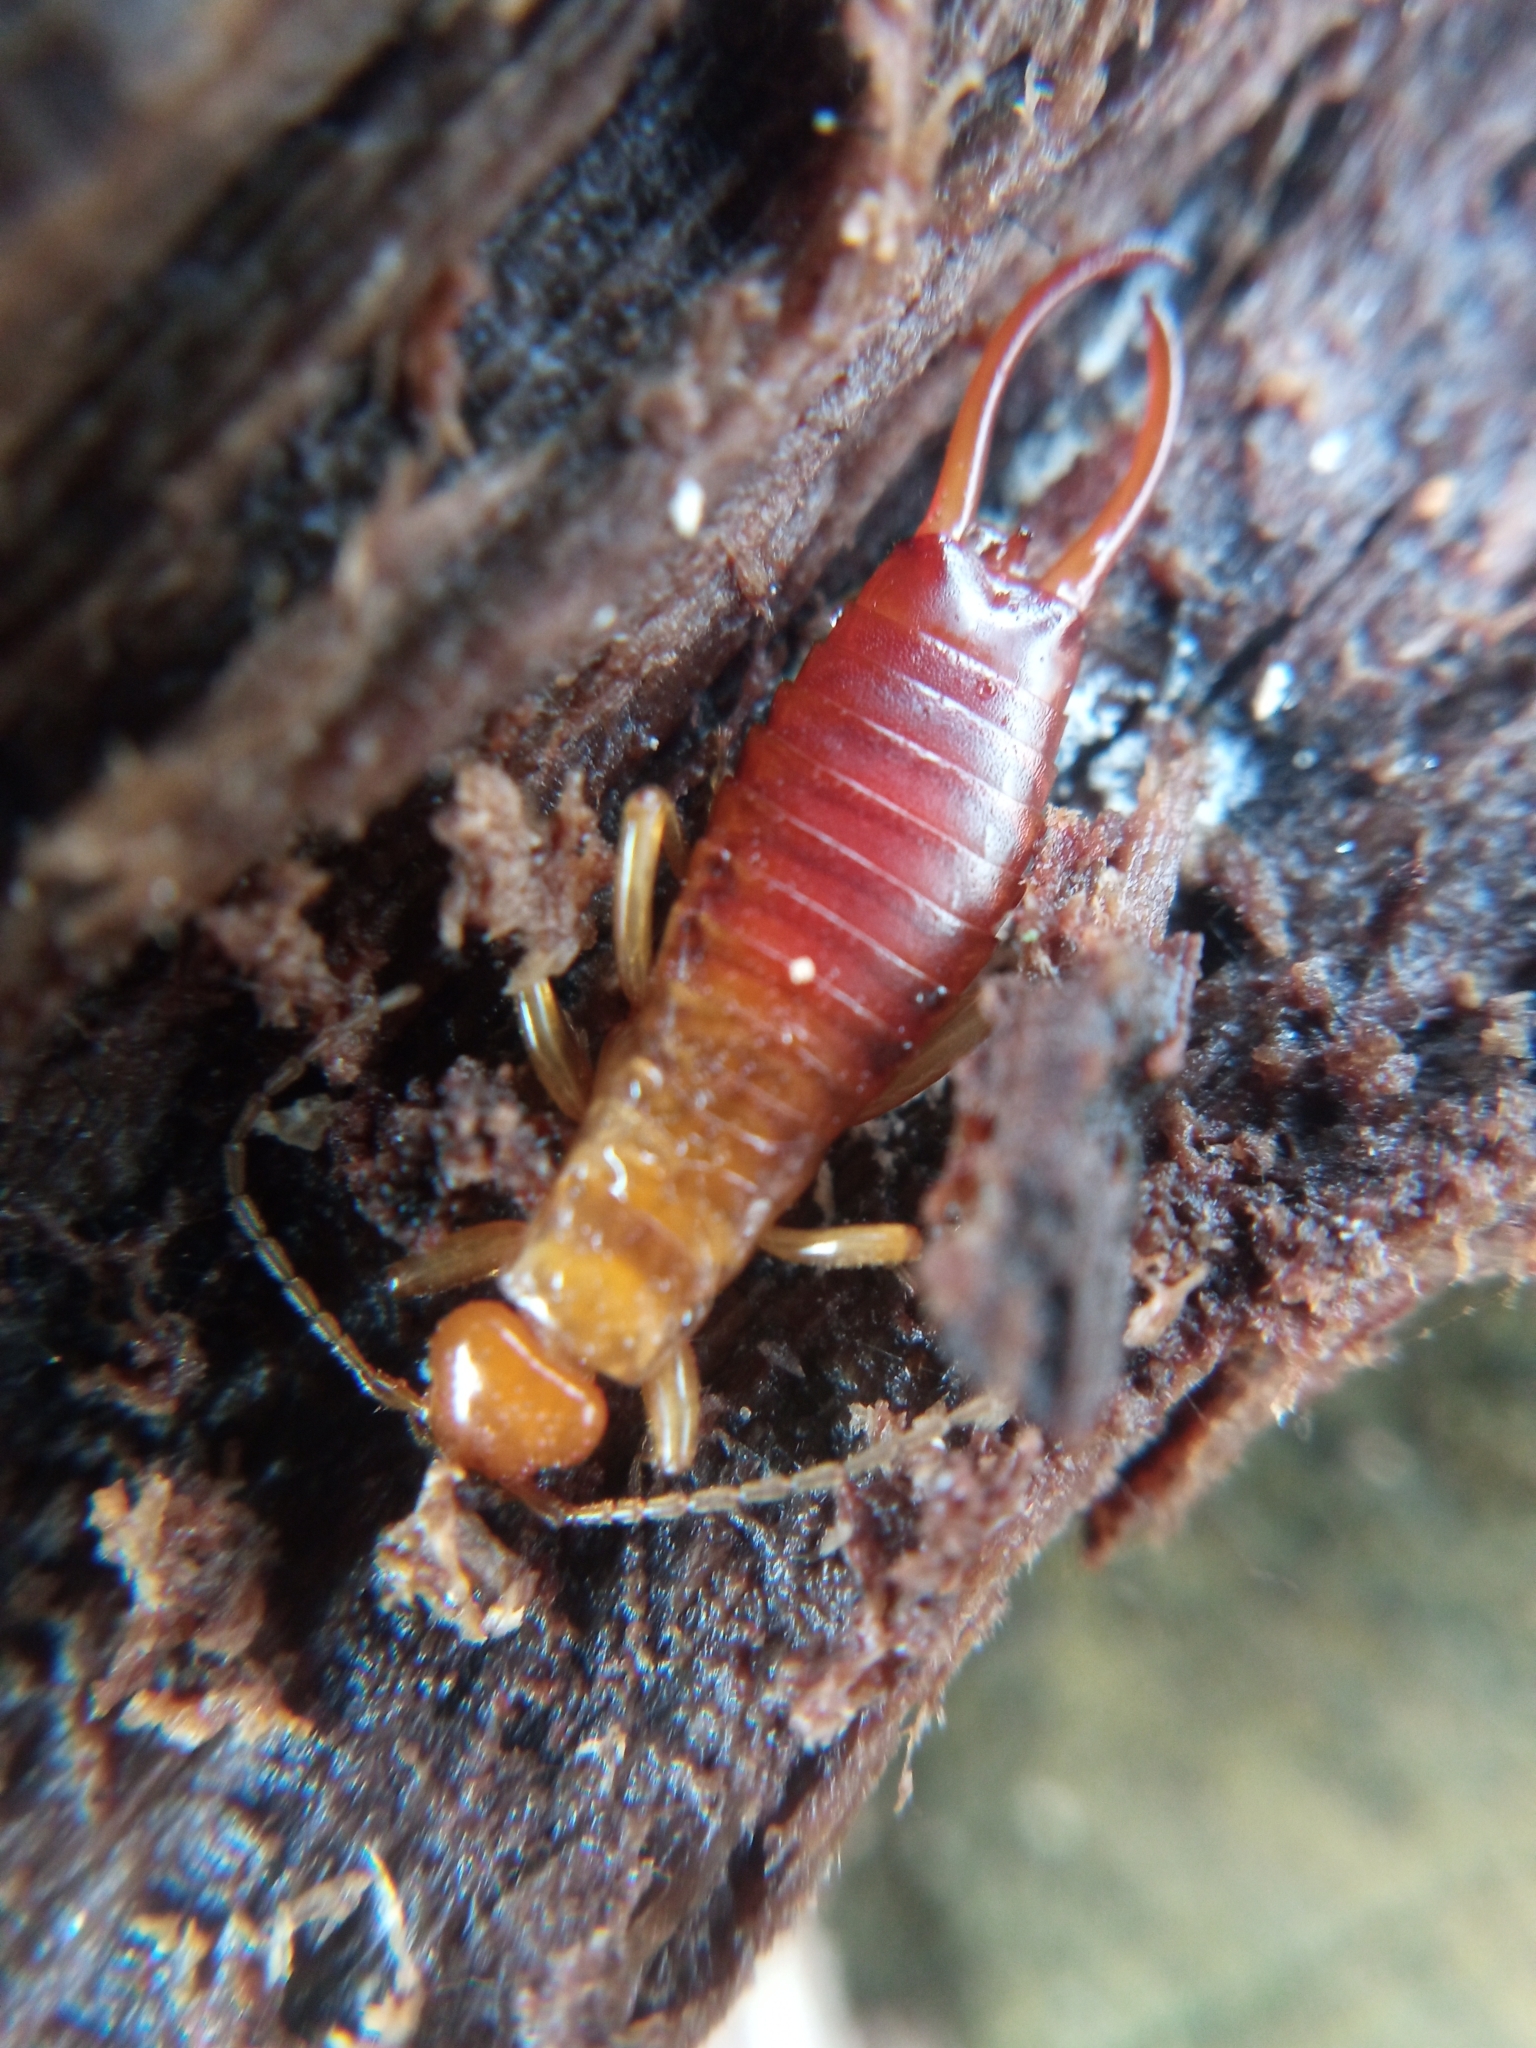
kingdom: Animalia
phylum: Arthropoda
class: Insecta
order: Dermaptera
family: Forficulidae
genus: Chelidurella
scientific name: Chelidurella acanthopygia
